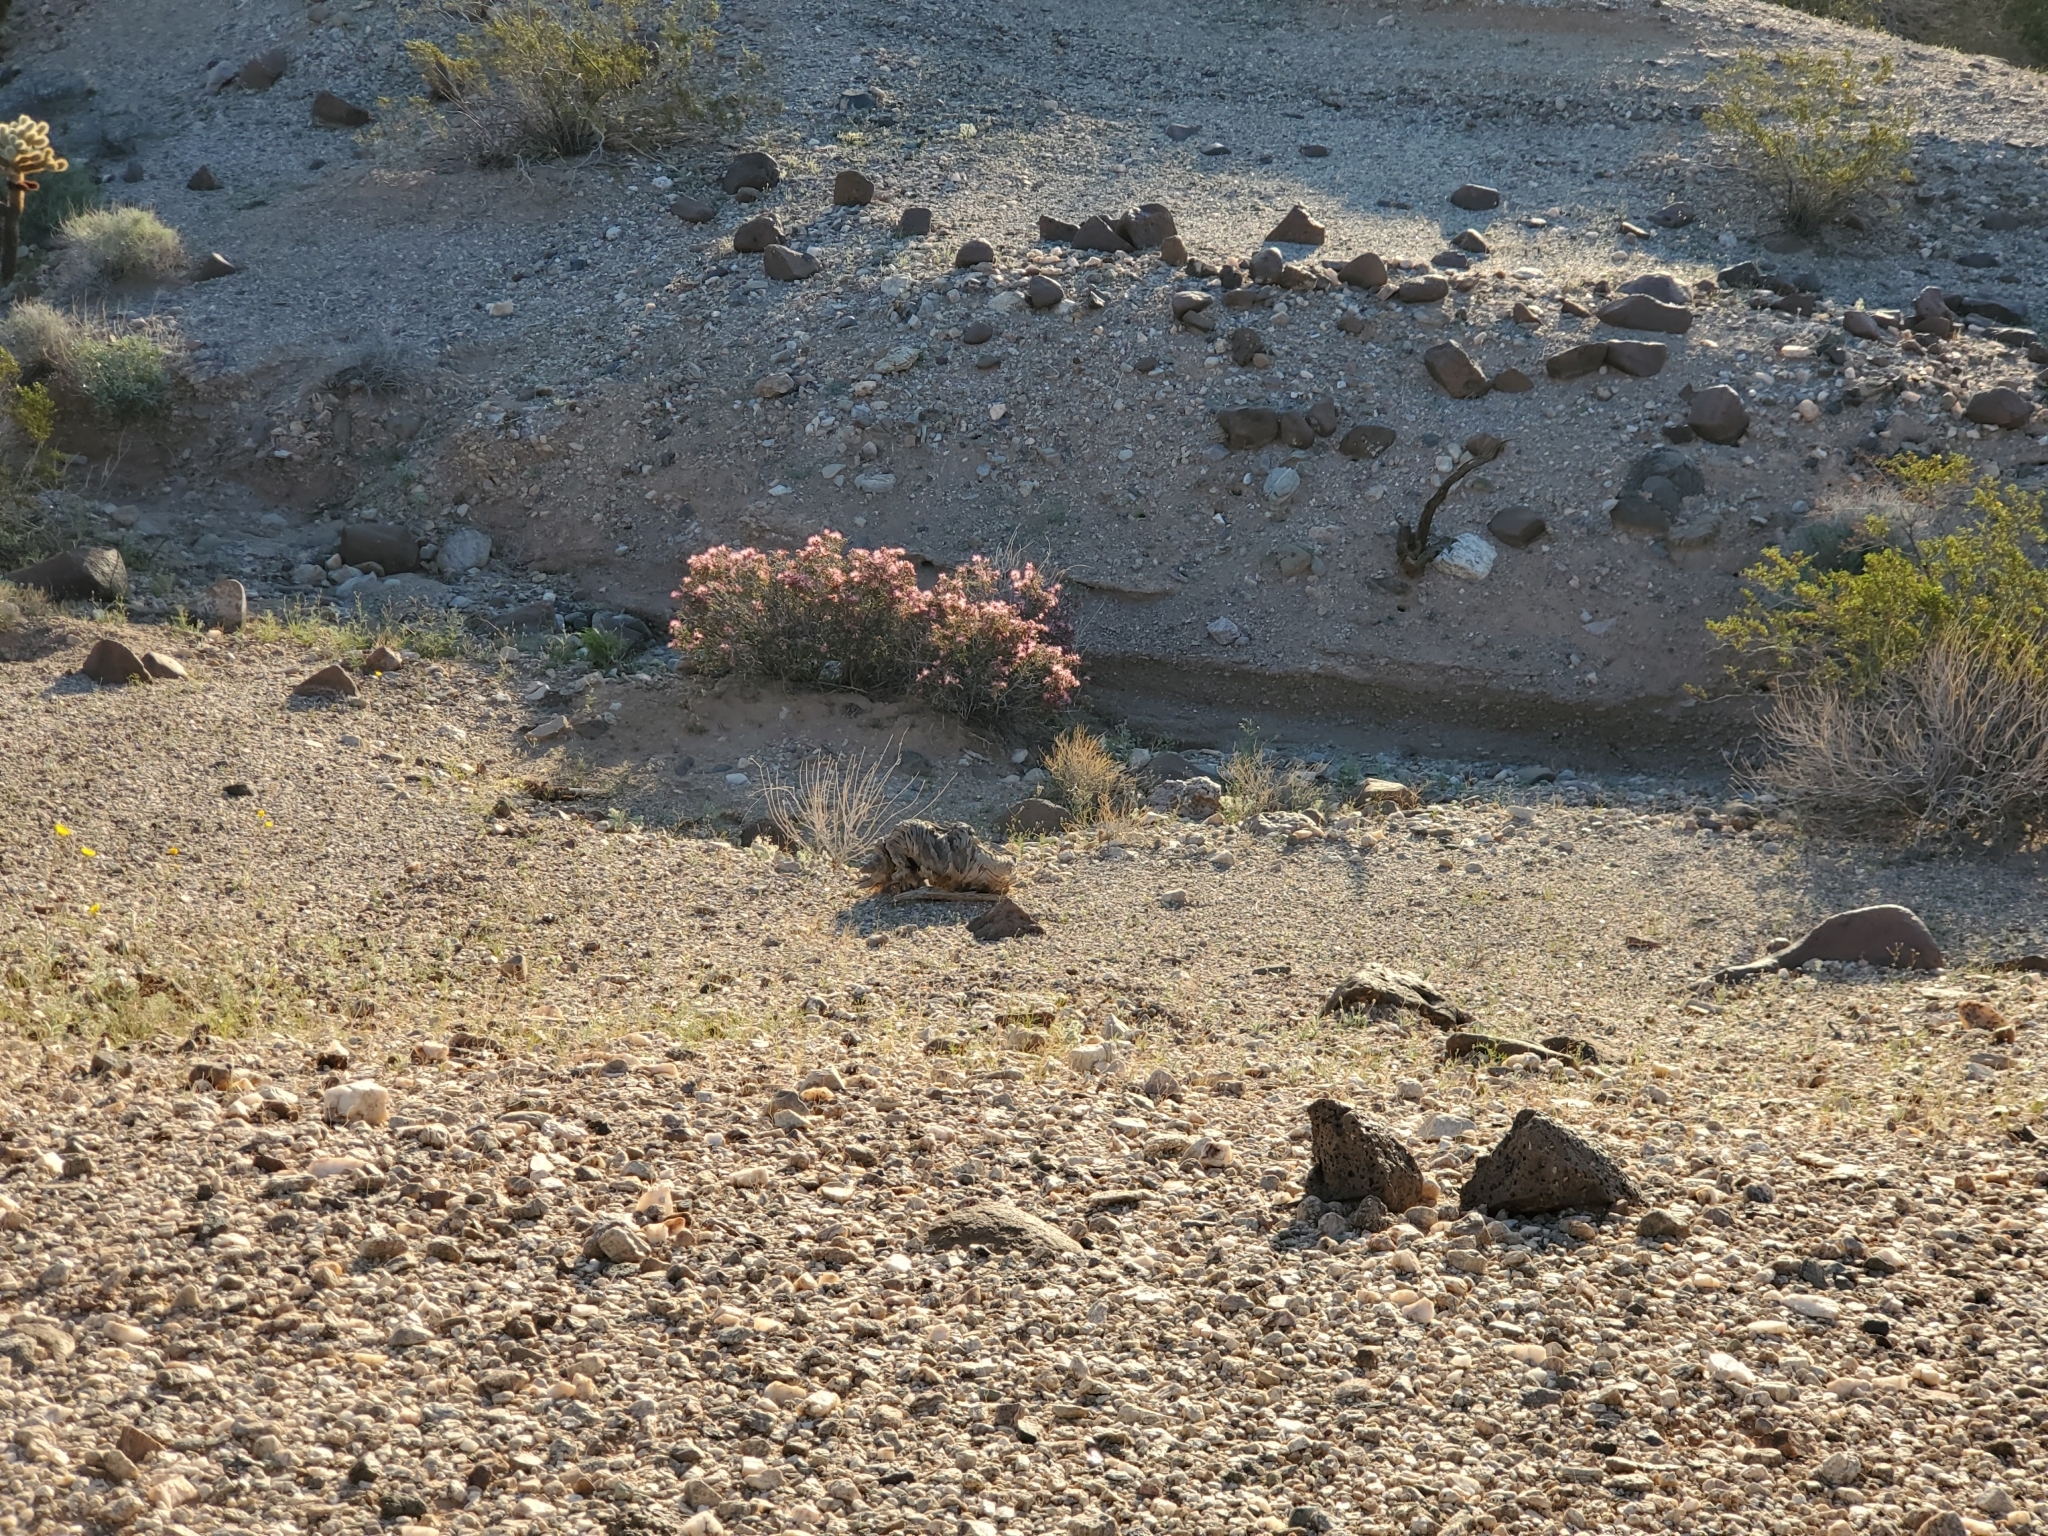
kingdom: Plantae
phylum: Tracheophyta
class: Magnoliopsida
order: Fabales
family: Fabaceae
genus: Calliandra
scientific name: Calliandra eriophylla
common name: Fairy-duster
